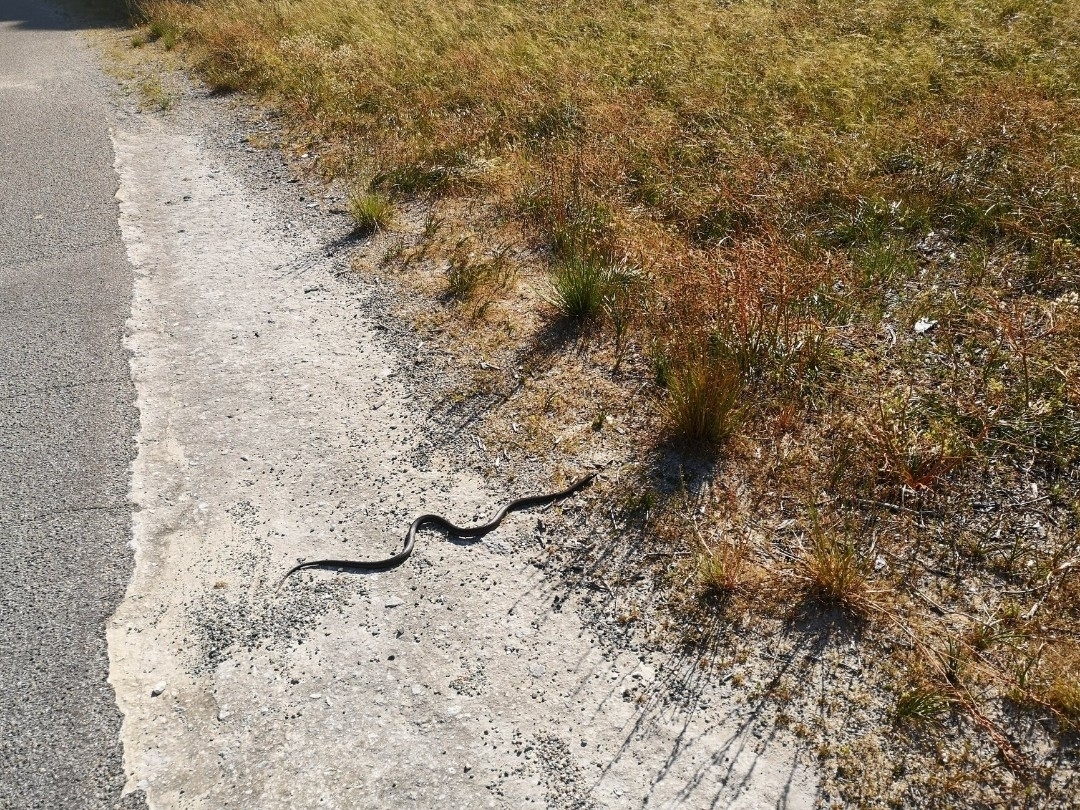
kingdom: Animalia
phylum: Chordata
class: Squamata
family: Elapidae
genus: Pseudonaja
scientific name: Pseudonaja affinis
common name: Dugite
